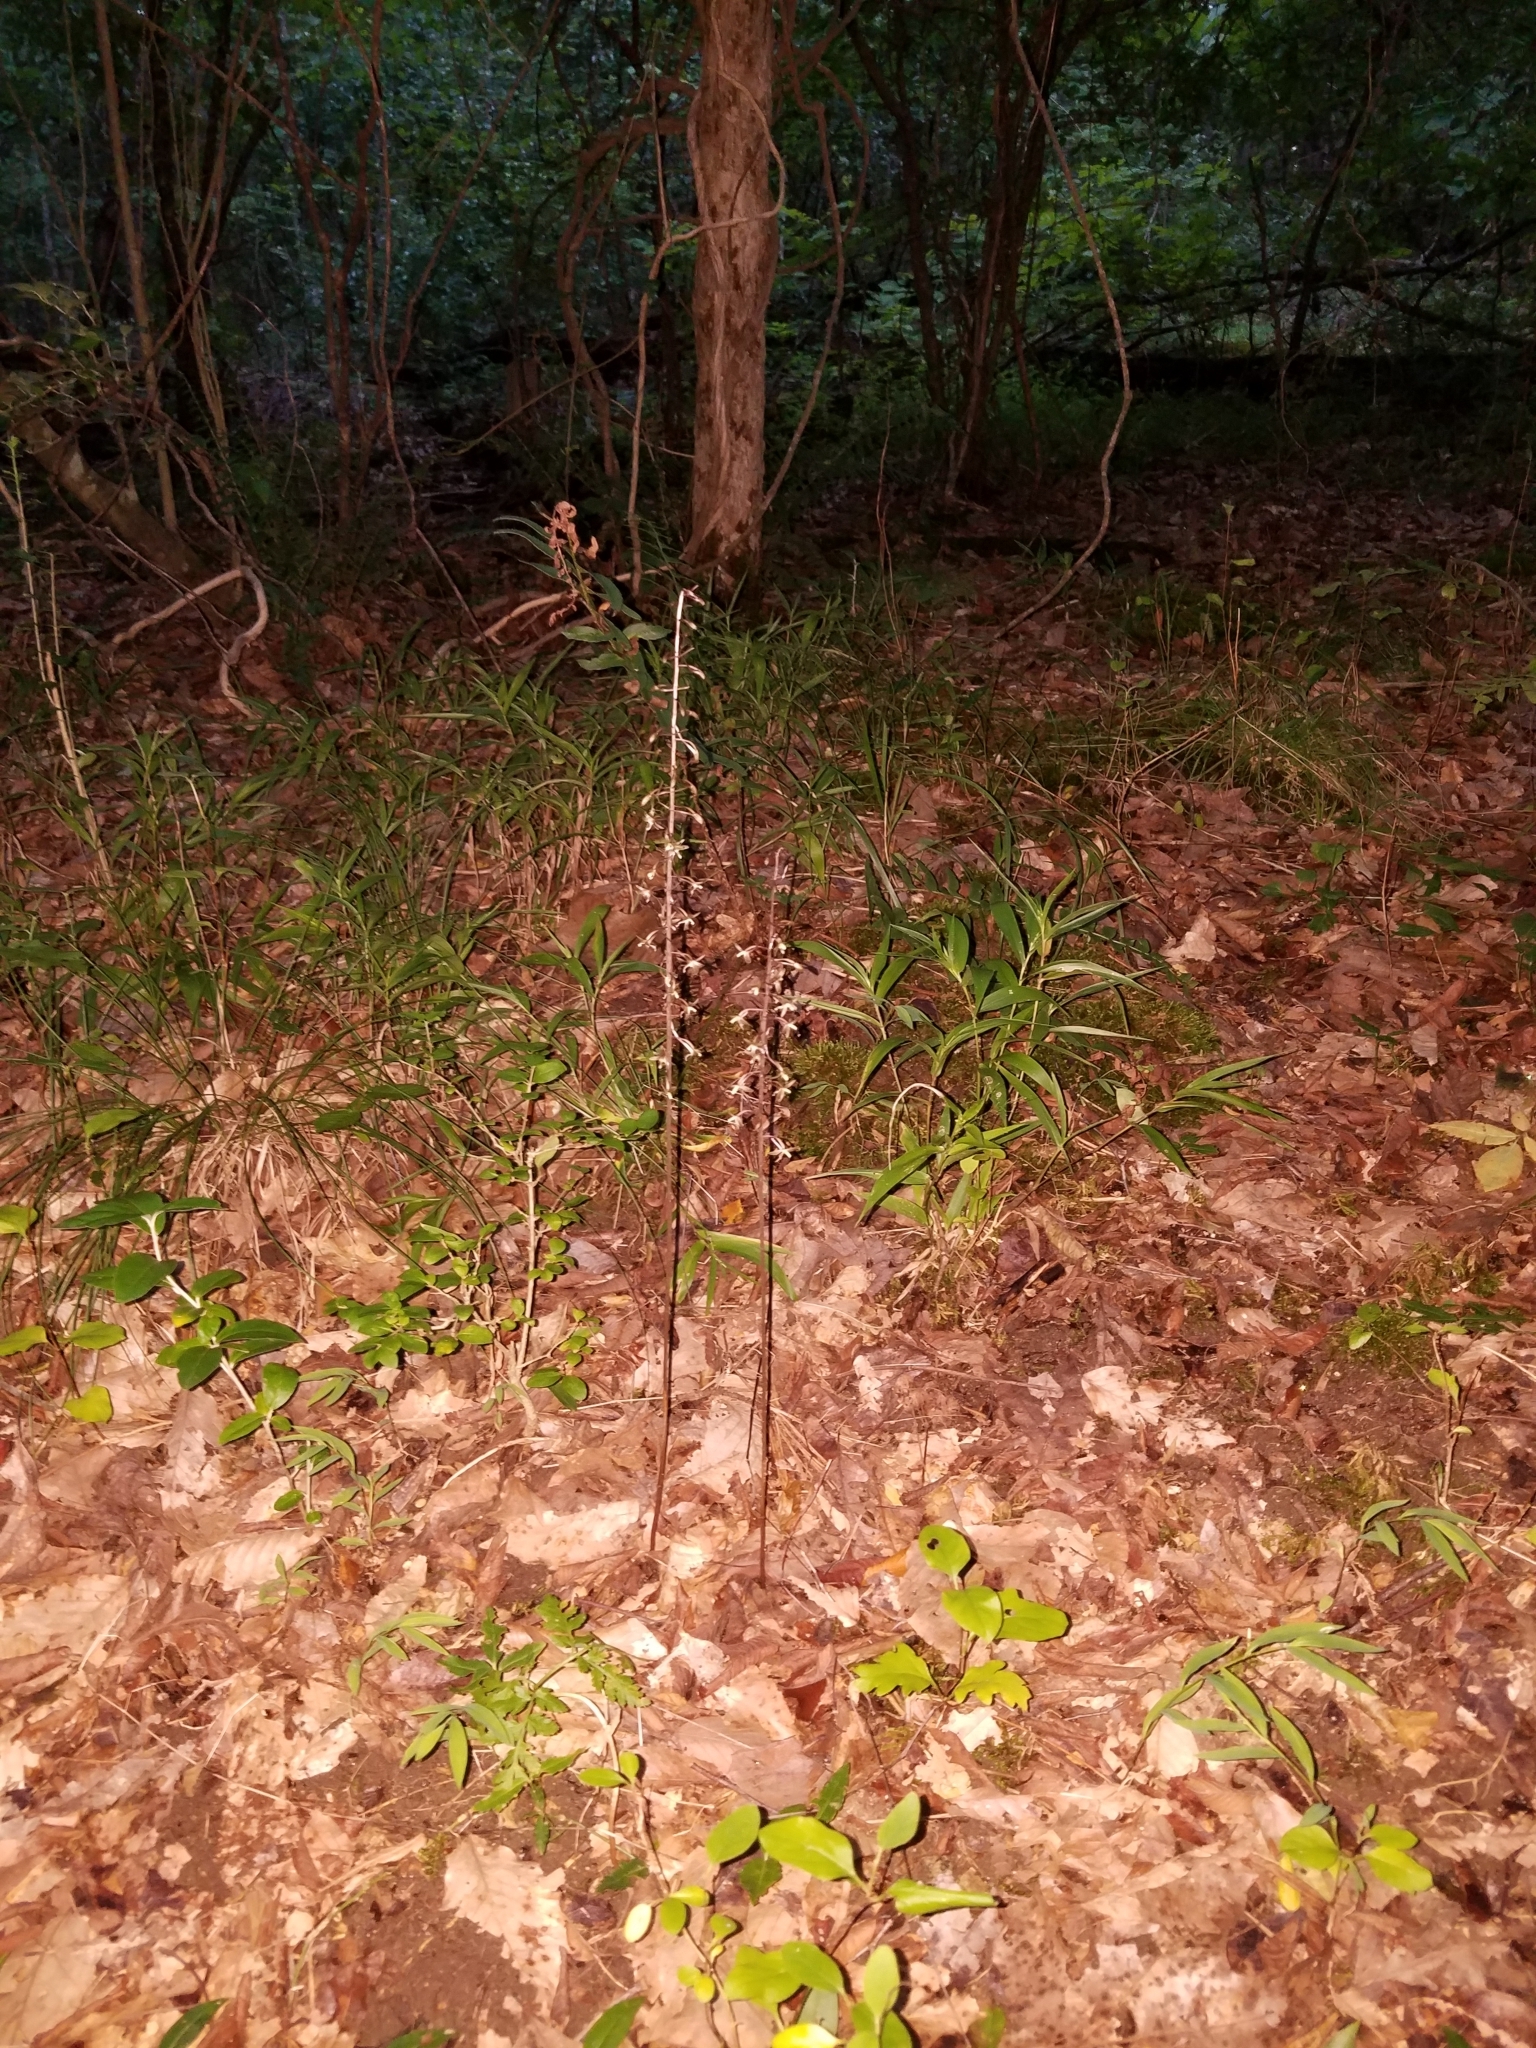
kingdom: Plantae
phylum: Tracheophyta
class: Liliopsida
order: Asparagales
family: Orchidaceae
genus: Tipularia
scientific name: Tipularia discolor
